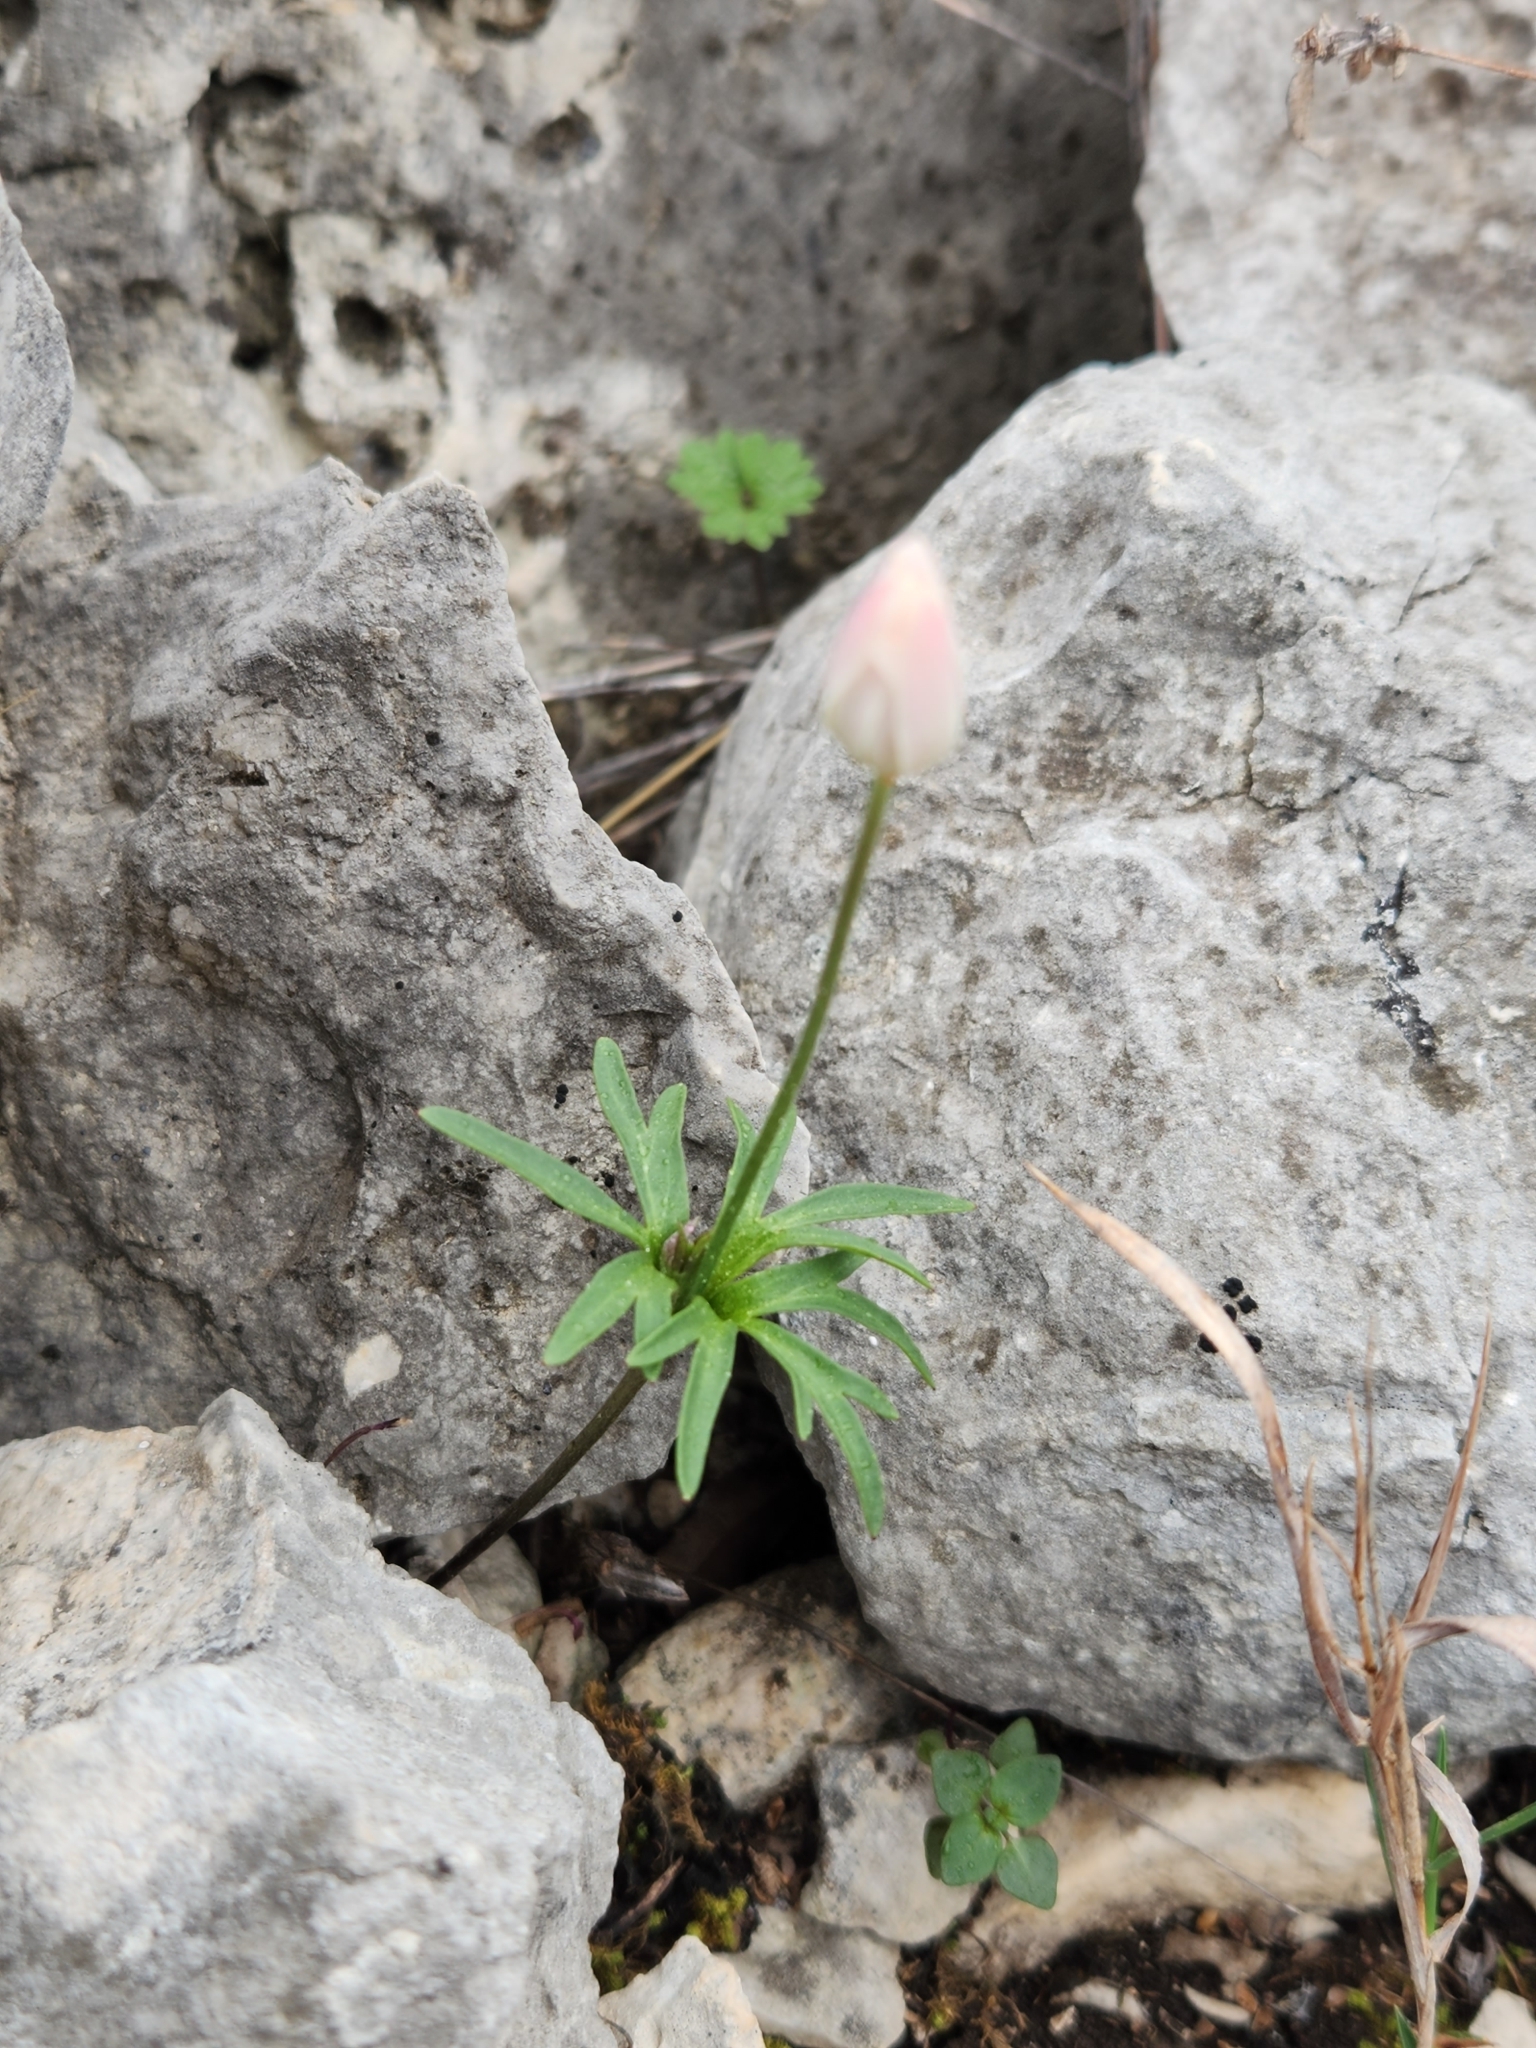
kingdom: Plantae
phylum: Tracheophyta
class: Magnoliopsida
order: Ranunculales
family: Ranunculaceae
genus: Anemone
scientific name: Anemone edwardsiana
